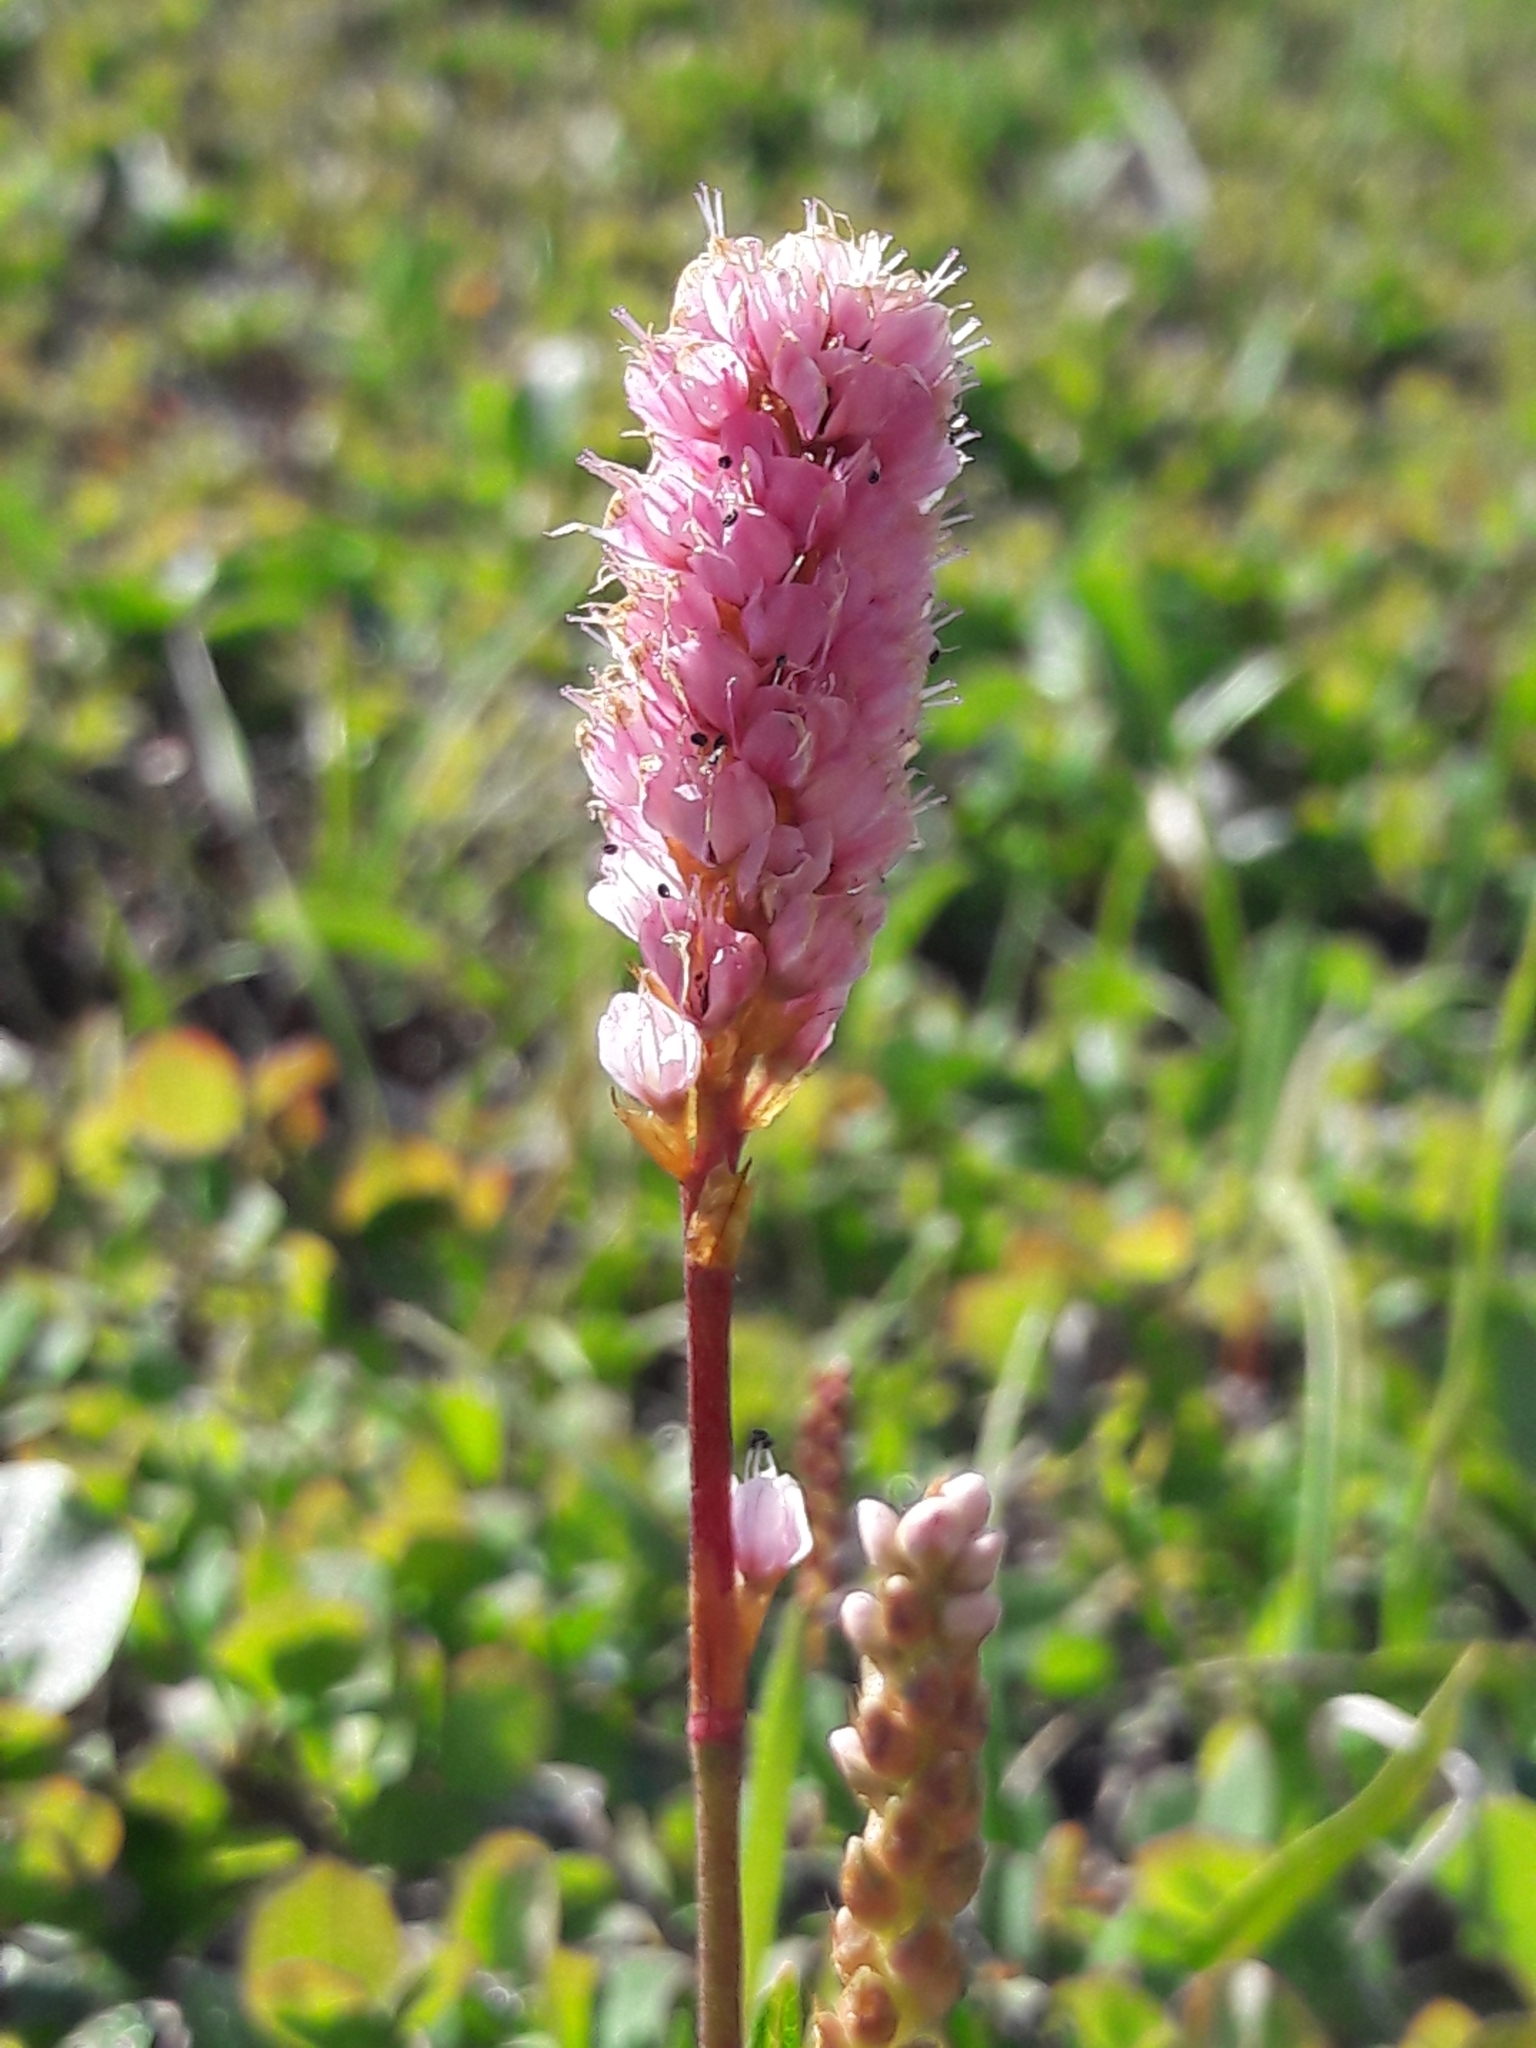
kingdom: Plantae
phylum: Tracheophyta
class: Magnoliopsida
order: Caryophyllales
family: Polygonaceae
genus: Bistorta
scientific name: Bistorta plumosa
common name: Meadow bistort
